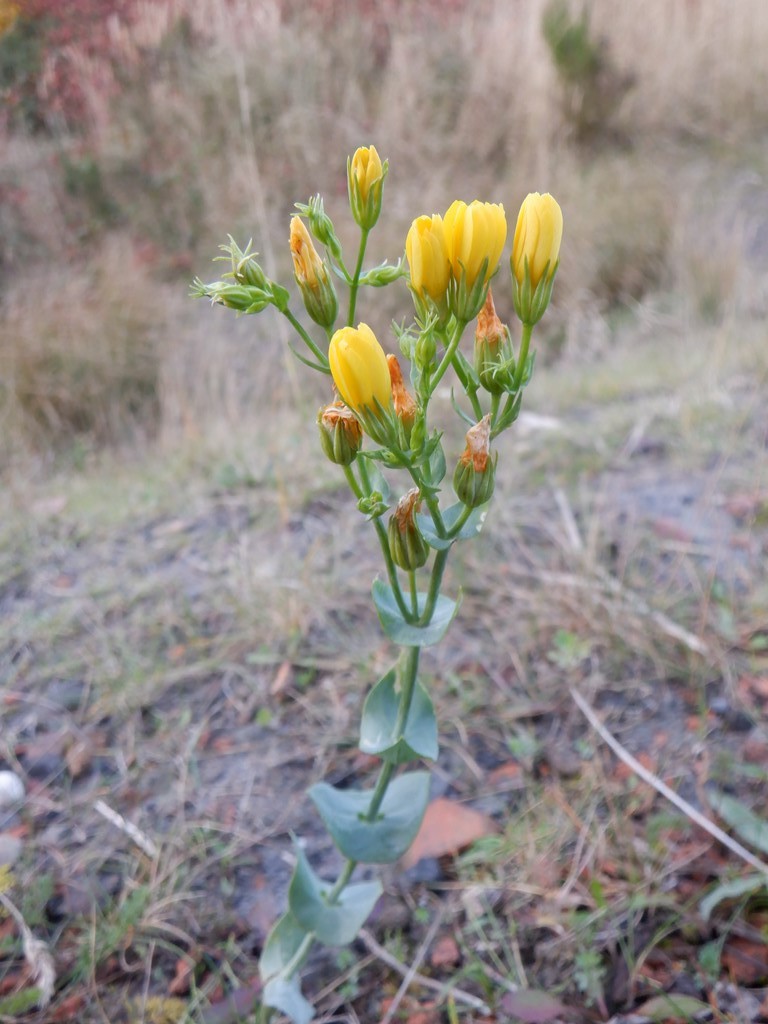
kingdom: Plantae
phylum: Tracheophyta
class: Magnoliopsida
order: Gentianales
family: Gentianaceae
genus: Blackstonia
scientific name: Blackstonia perfoliata
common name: Yellow-wort
